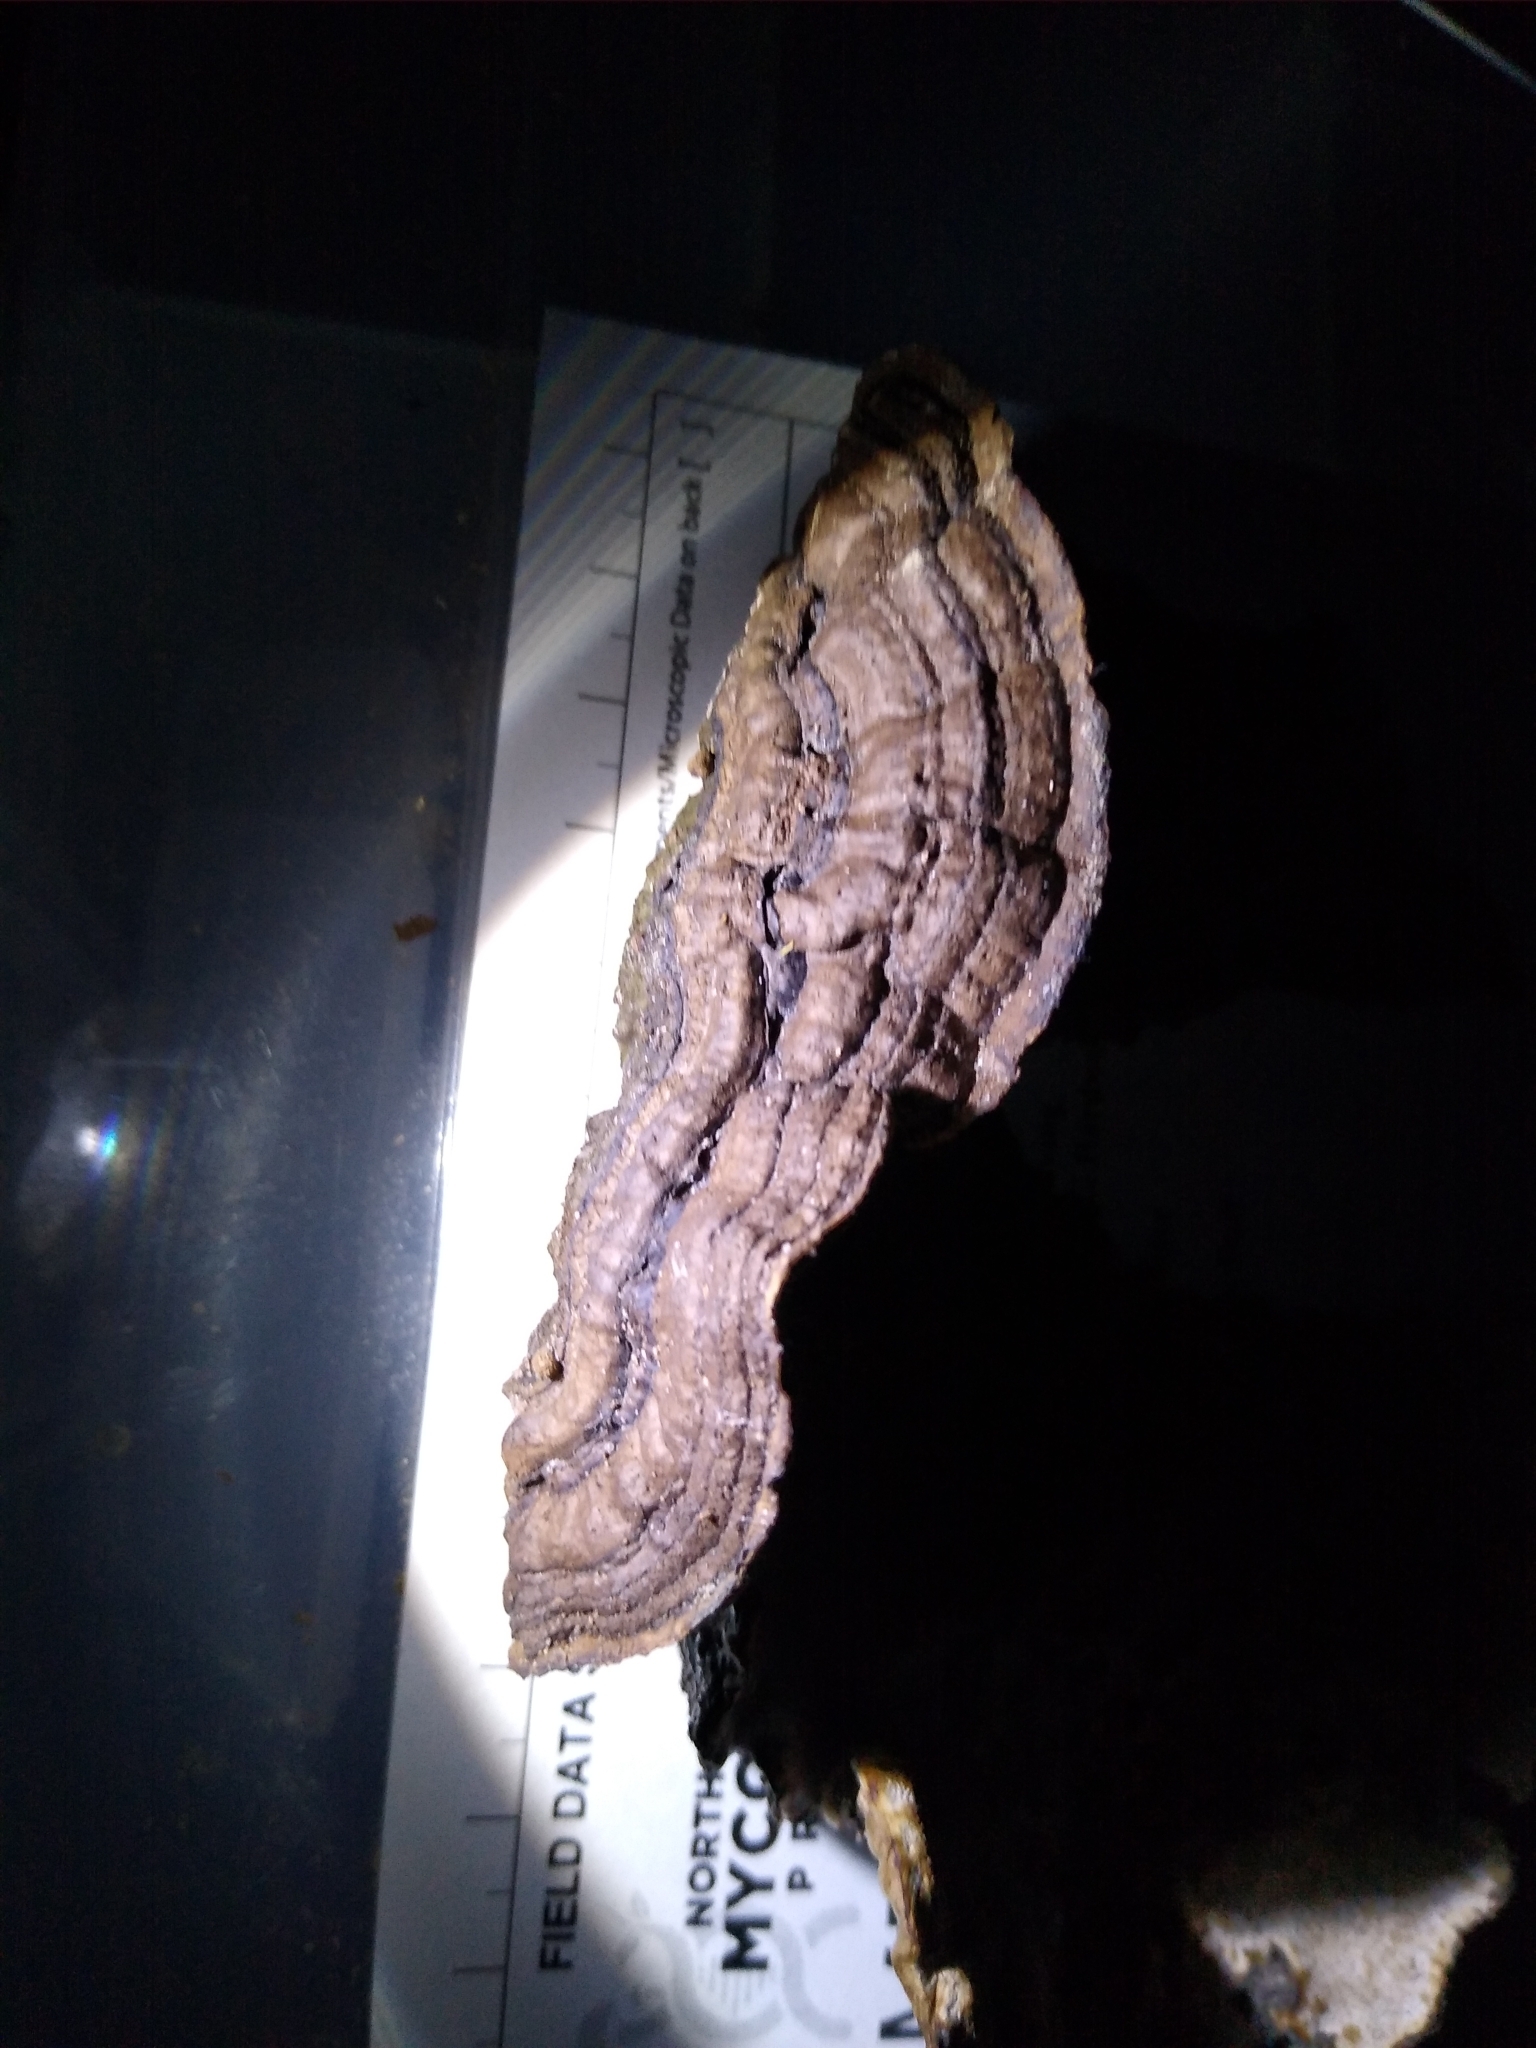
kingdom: Fungi
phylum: Basidiomycota
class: Agaricomycetes
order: Polyporales
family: Polyporaceae
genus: Podofomes
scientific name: Podofomes mollis
